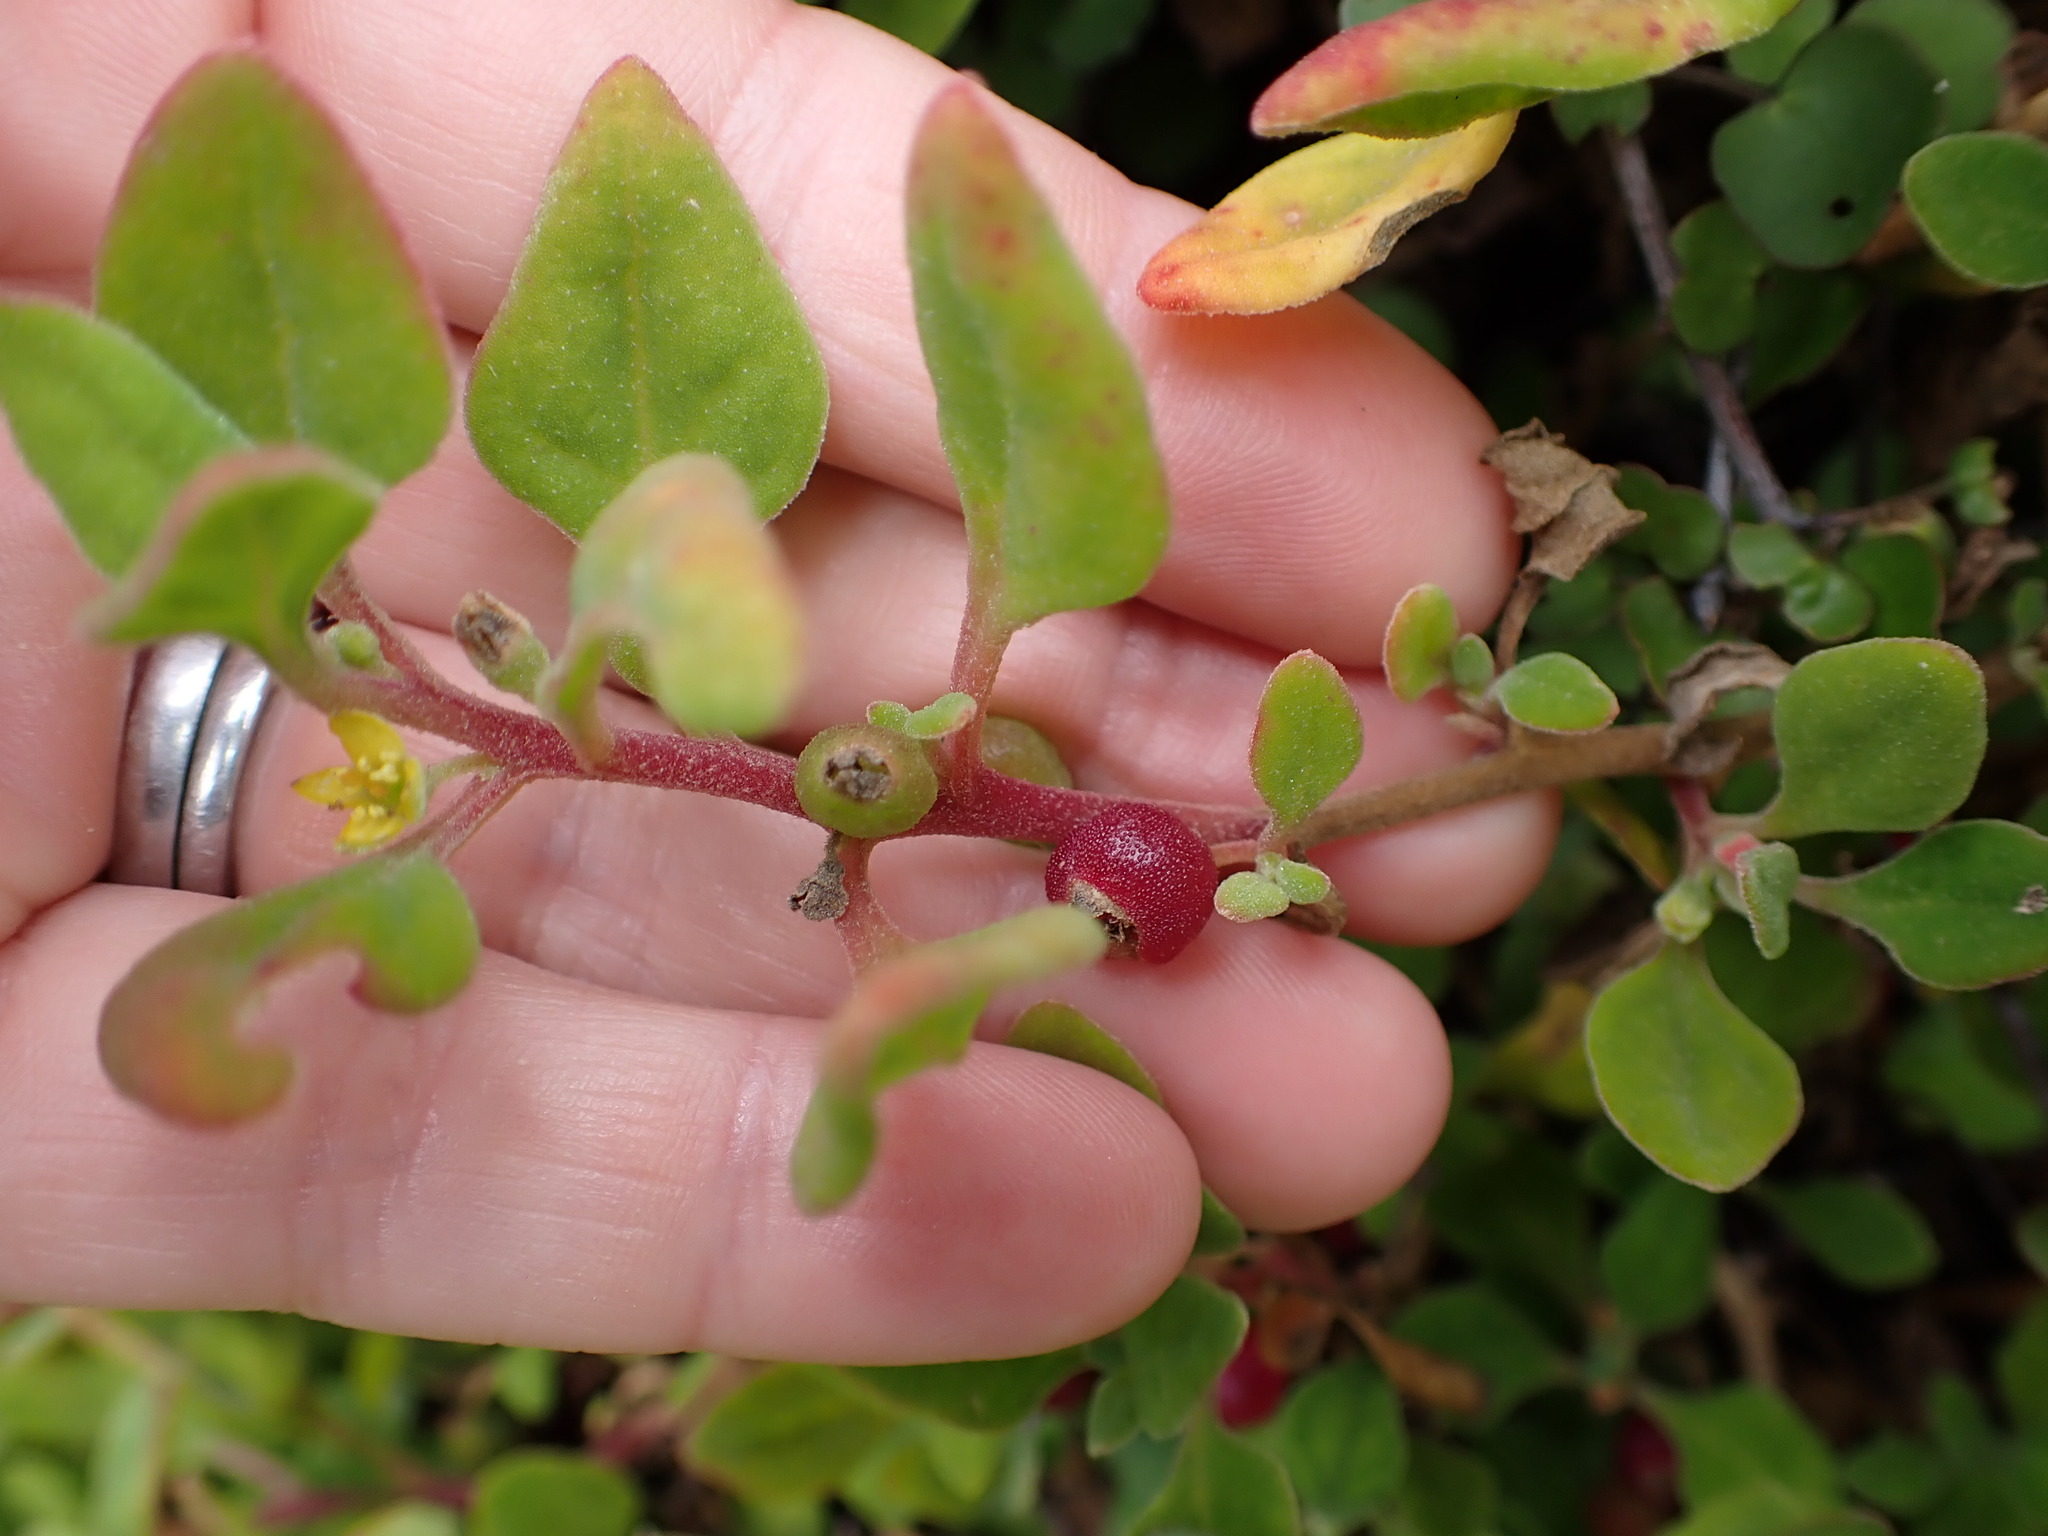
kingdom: Plantae
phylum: Tracheophyta
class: Magnoliopsida
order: Caryophyllales
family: Aizoaceae
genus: Tetragonia
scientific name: Tetragonia implexicoma
